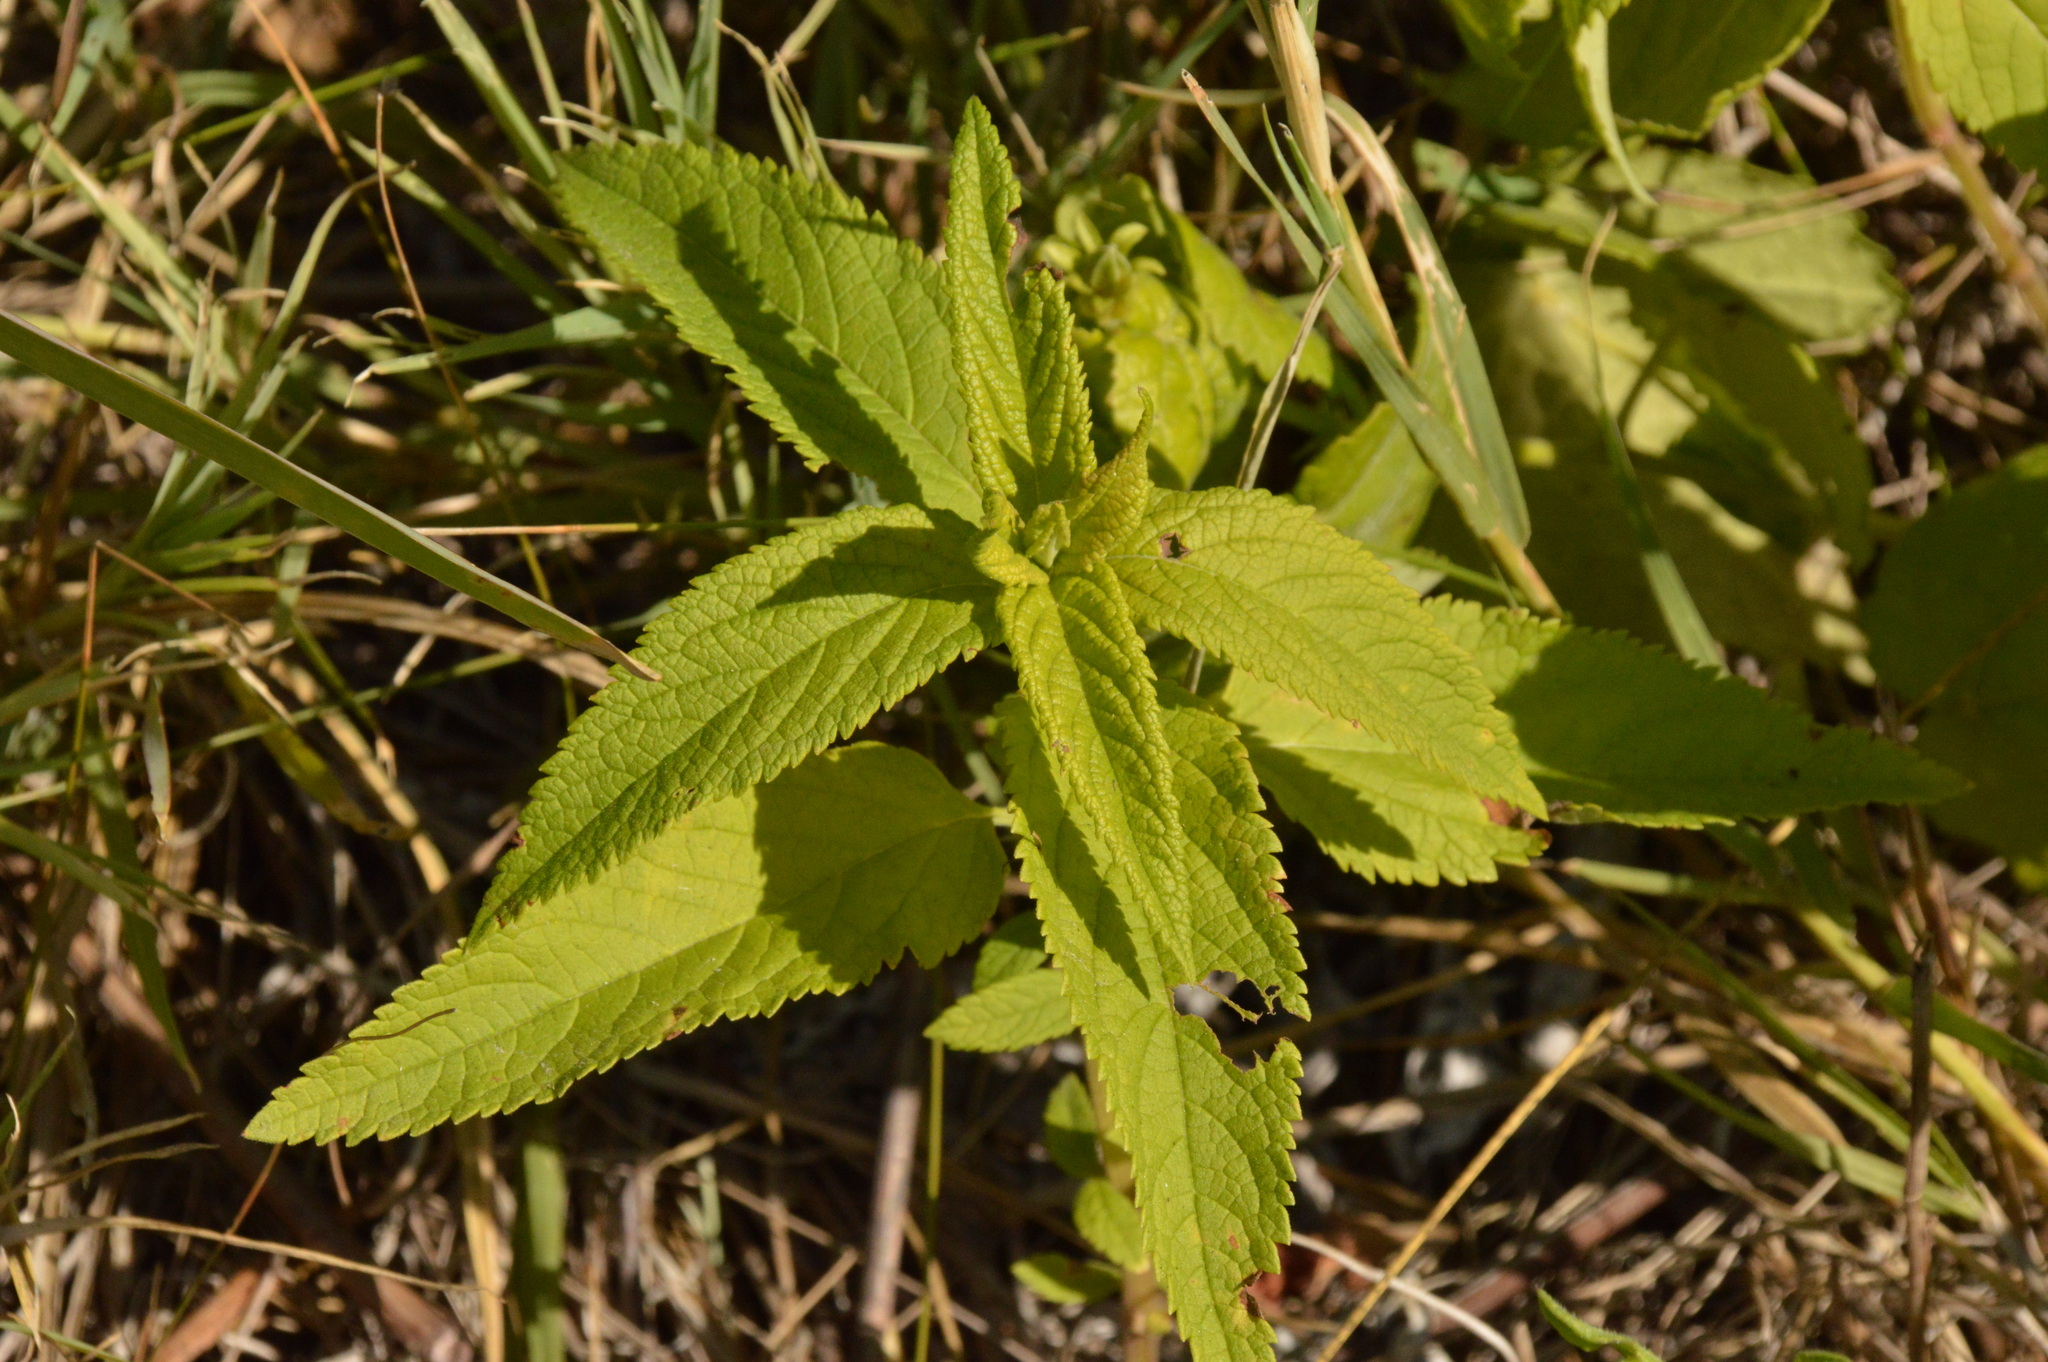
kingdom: Plantae
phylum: Tracheophyta
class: Magnoliopsida
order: Lamiales
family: Lamiaceae
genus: Teucrium
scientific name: Teucrium canadense
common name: American germander
